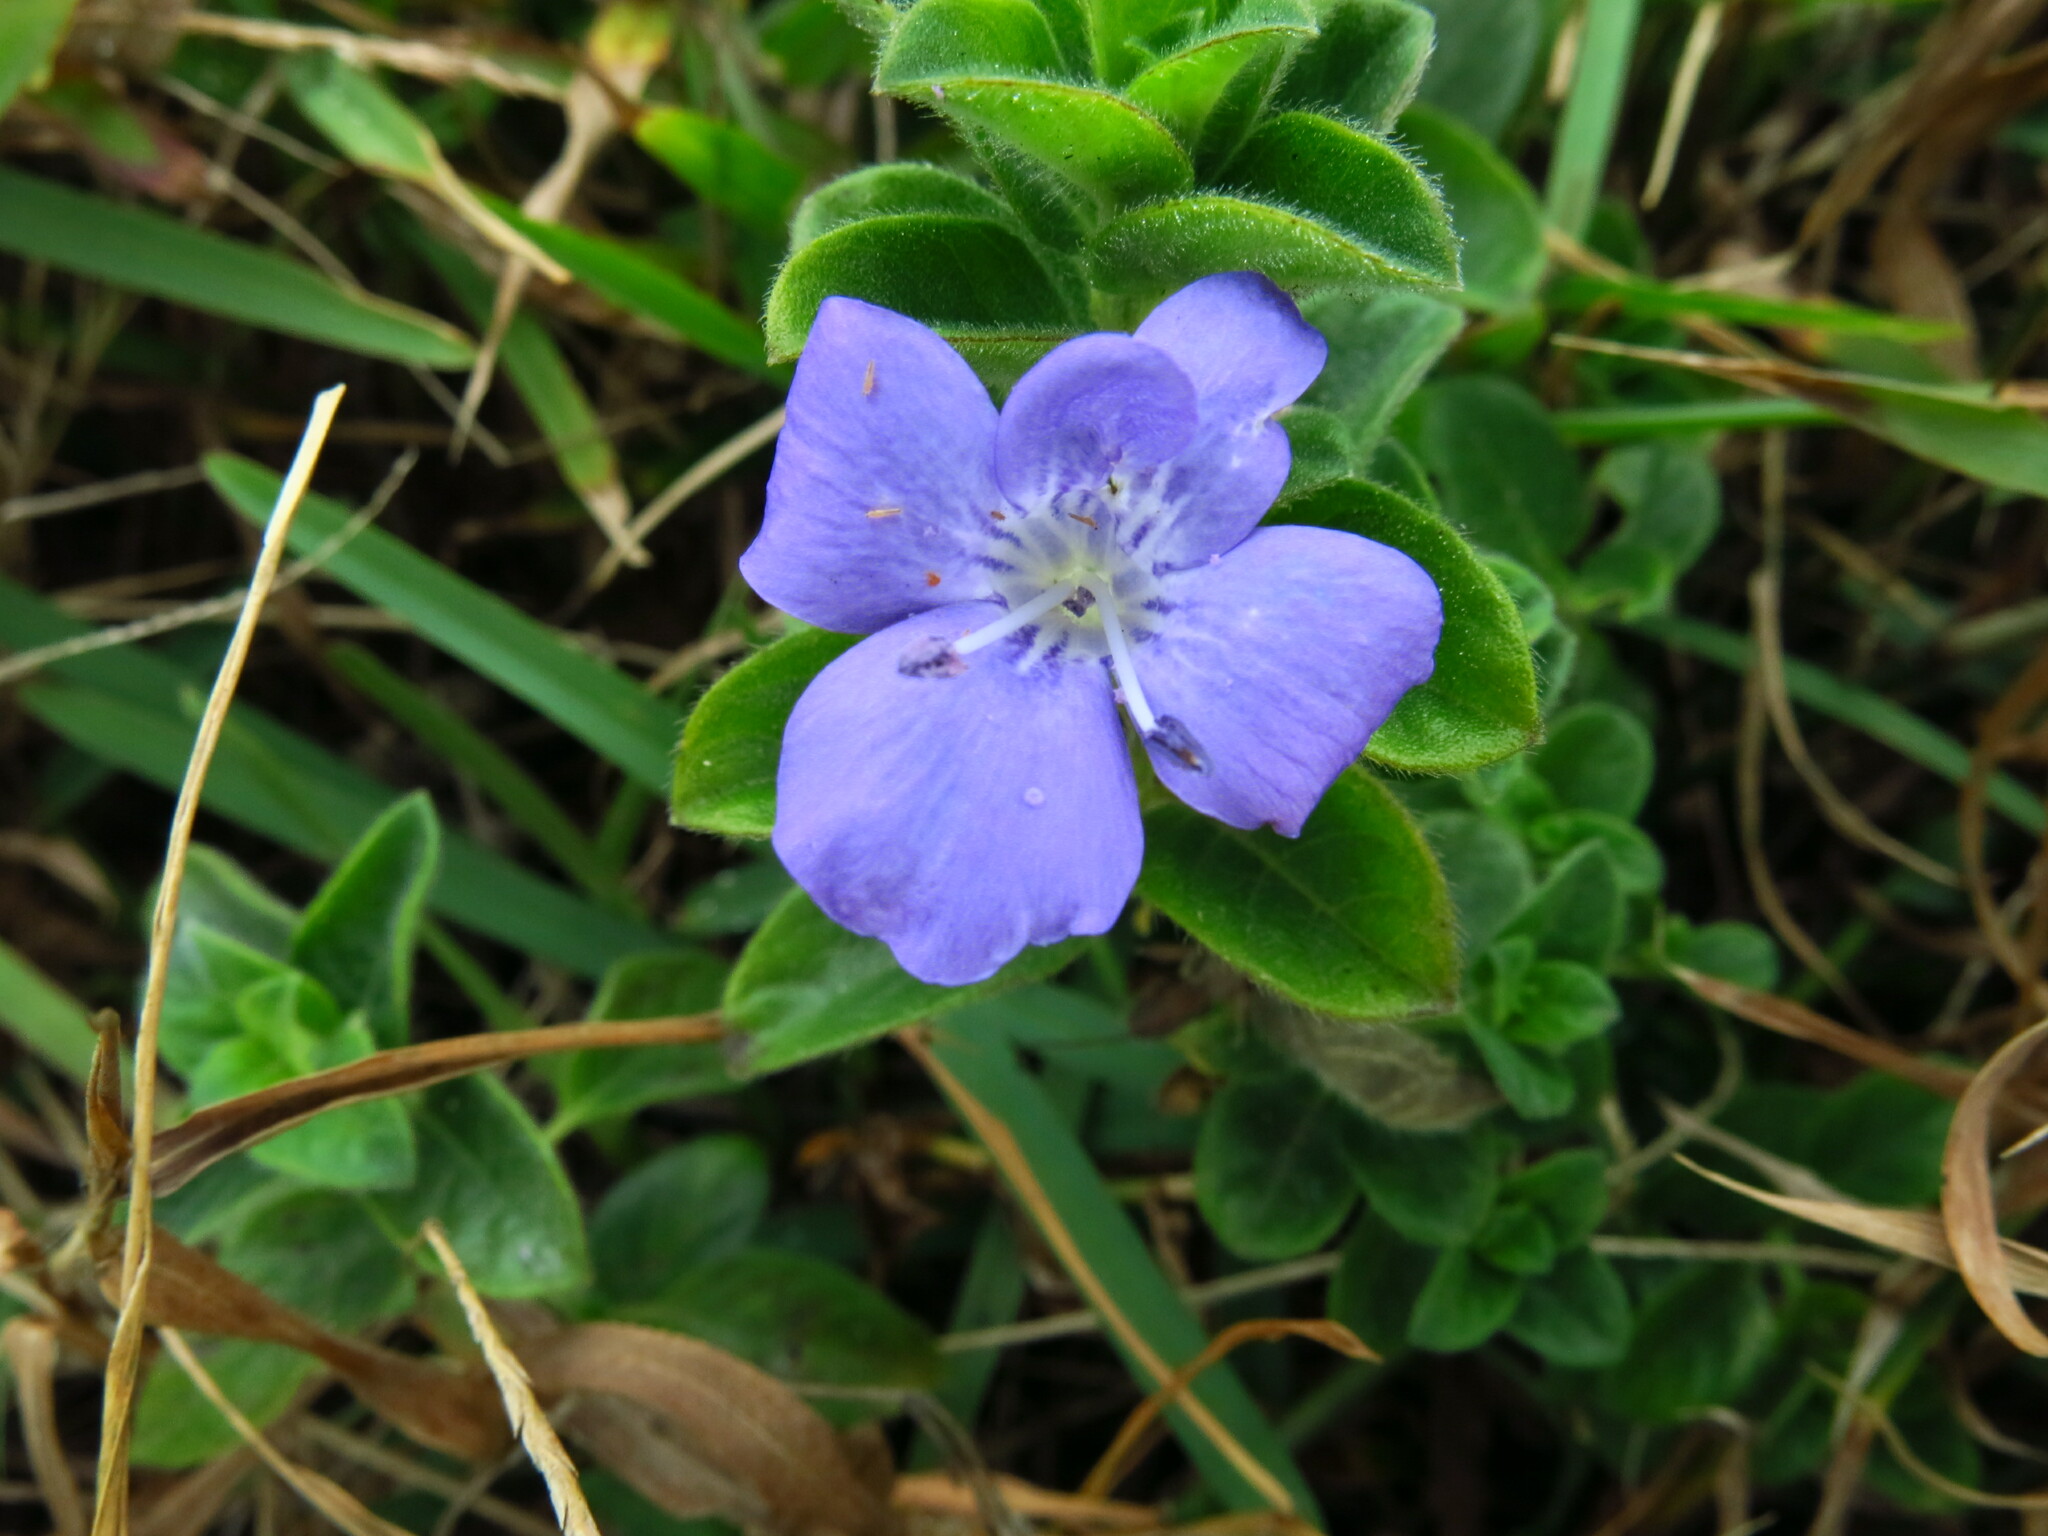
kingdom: Plantae
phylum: Tracheophyta
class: Magnoliopsida
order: Lamiales
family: Acanthaceae
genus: Barleria
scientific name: Barleria obtusa
